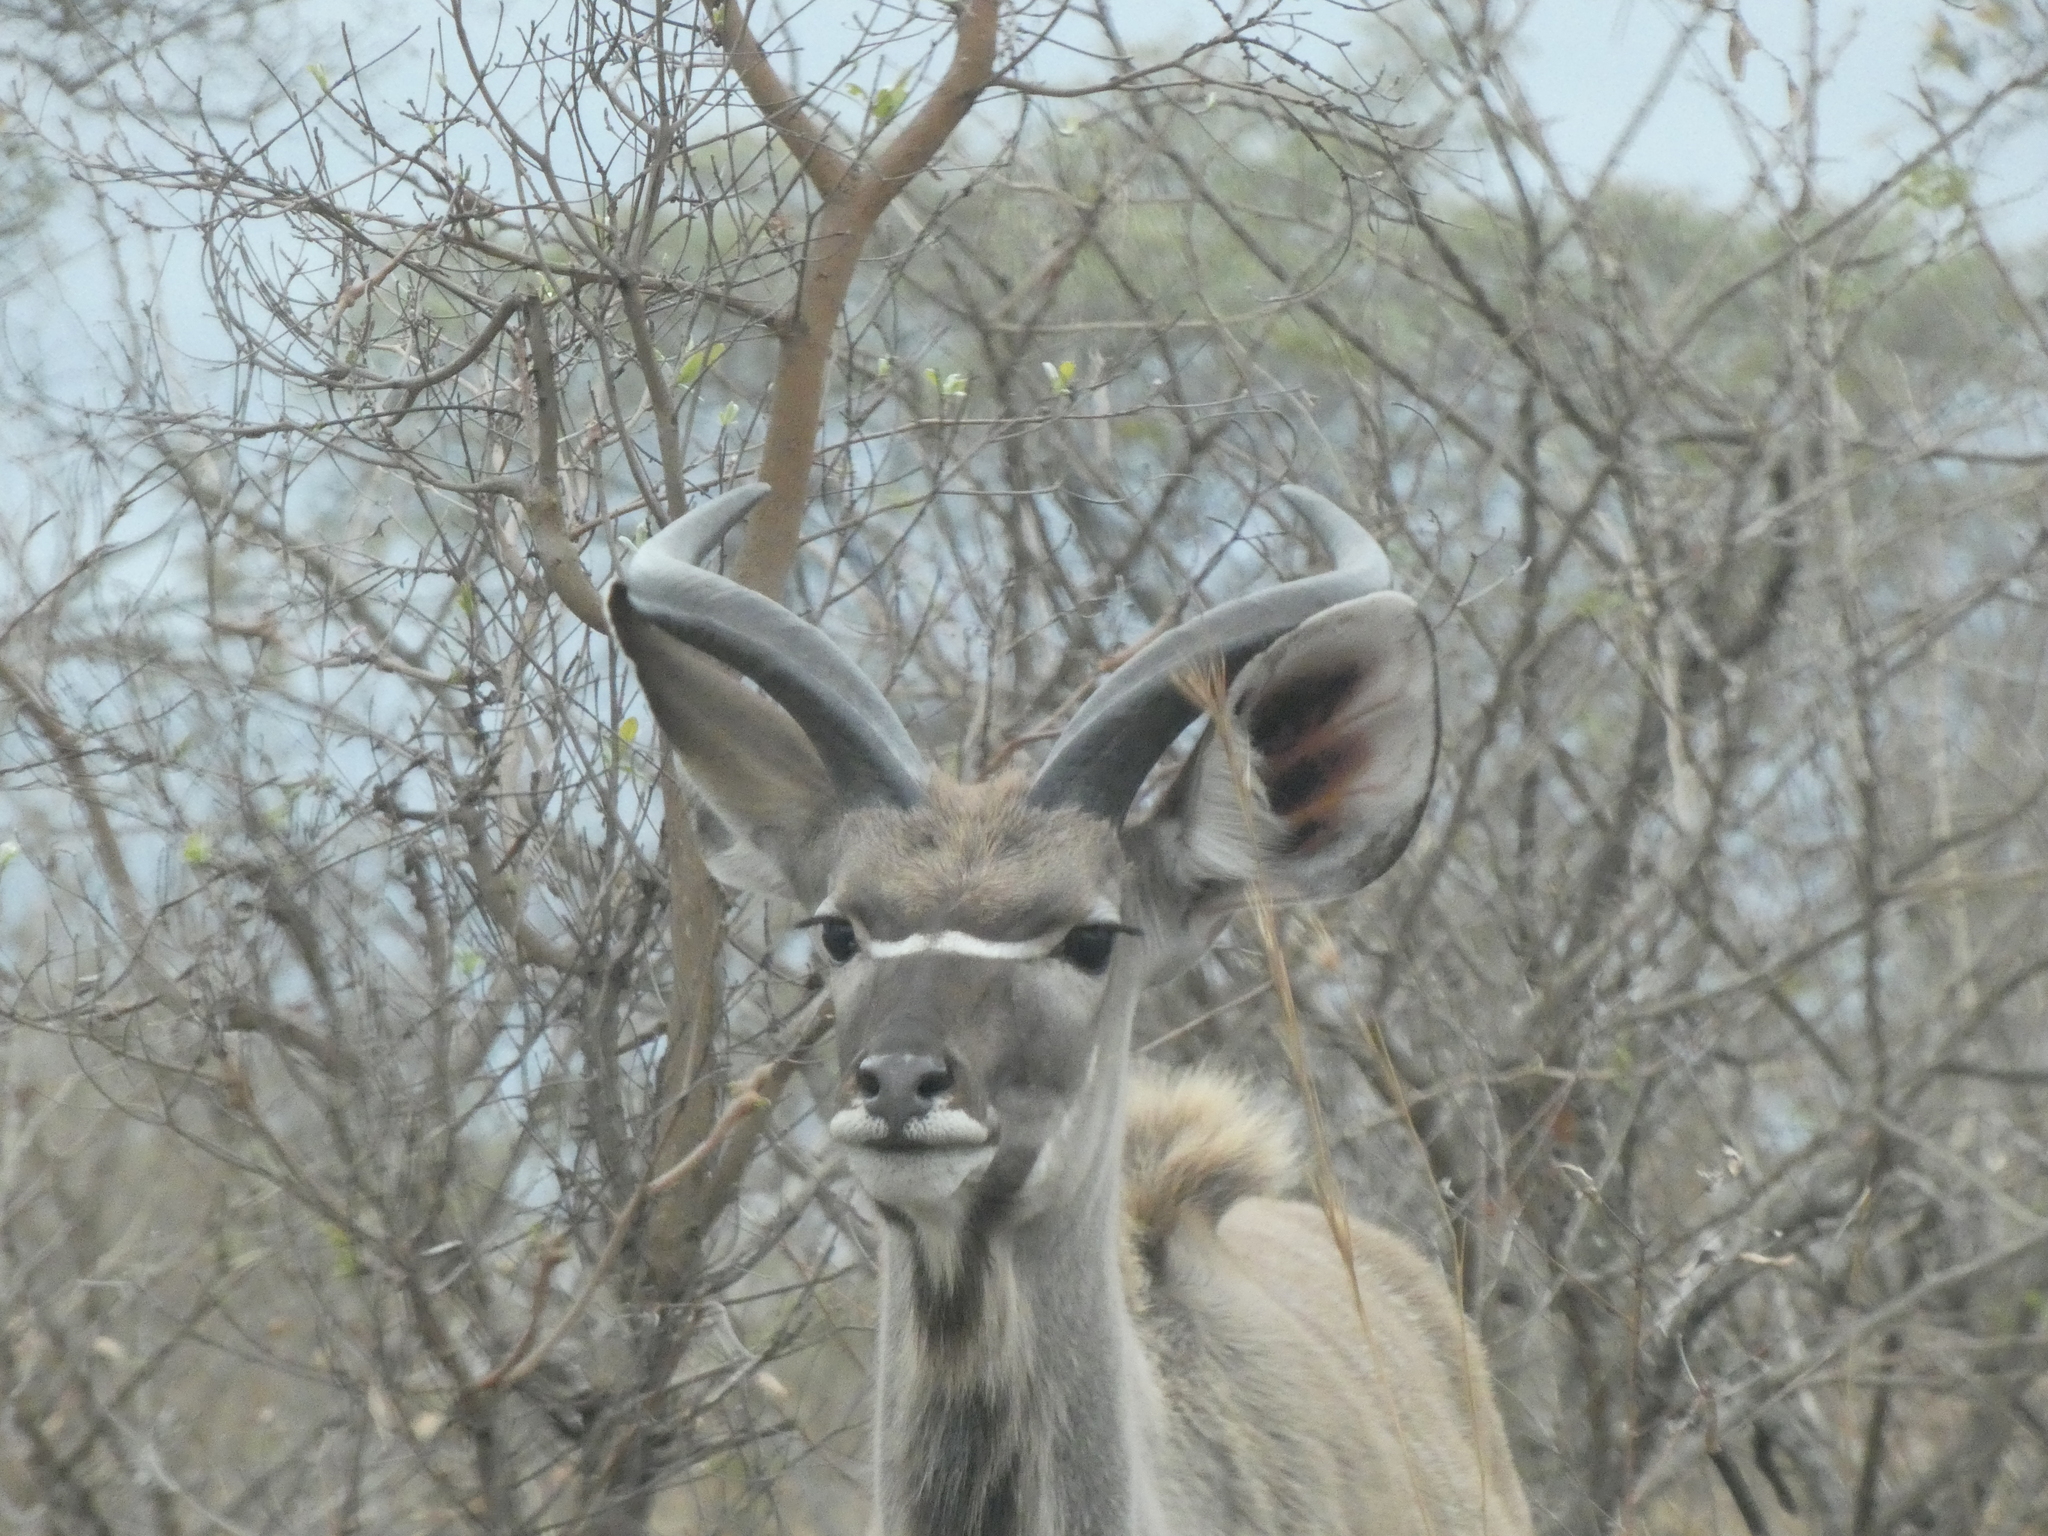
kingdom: Animalia
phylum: Chordata
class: Mammalia
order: Artiodactyla
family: Bovidae
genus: Tragelaphus
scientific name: Tragelaphus strepsiceros
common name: Greater kudu
